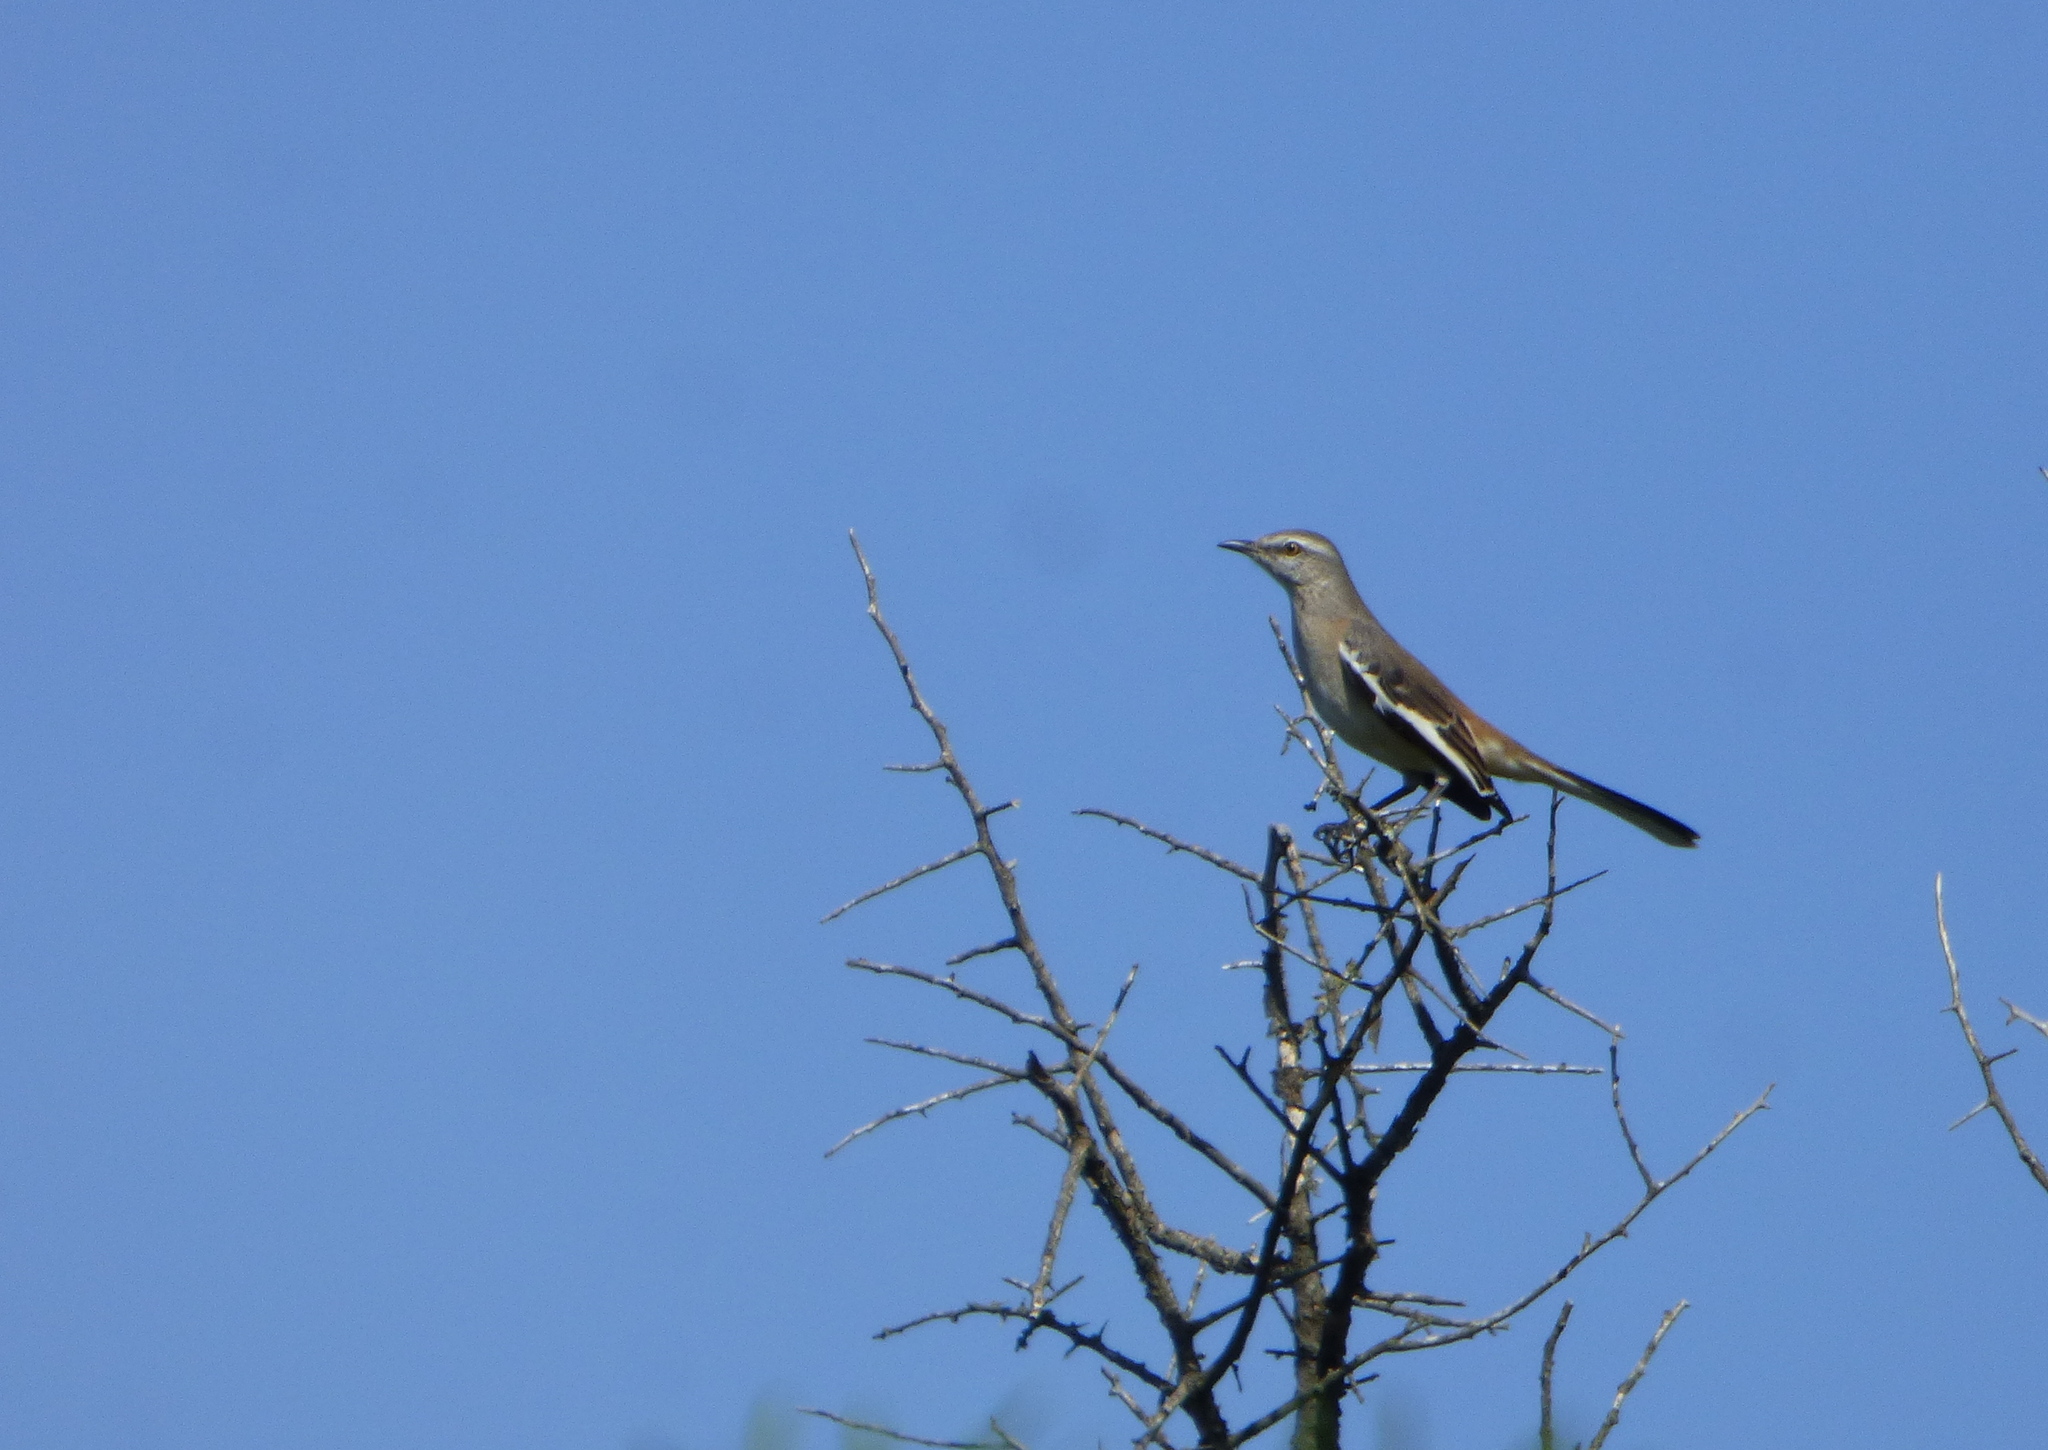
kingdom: Animalia
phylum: Chordata
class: Aves
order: Passeriformes
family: Mimidae
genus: Mimus
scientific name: Mimus triurus
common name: White-banded mockingbird
